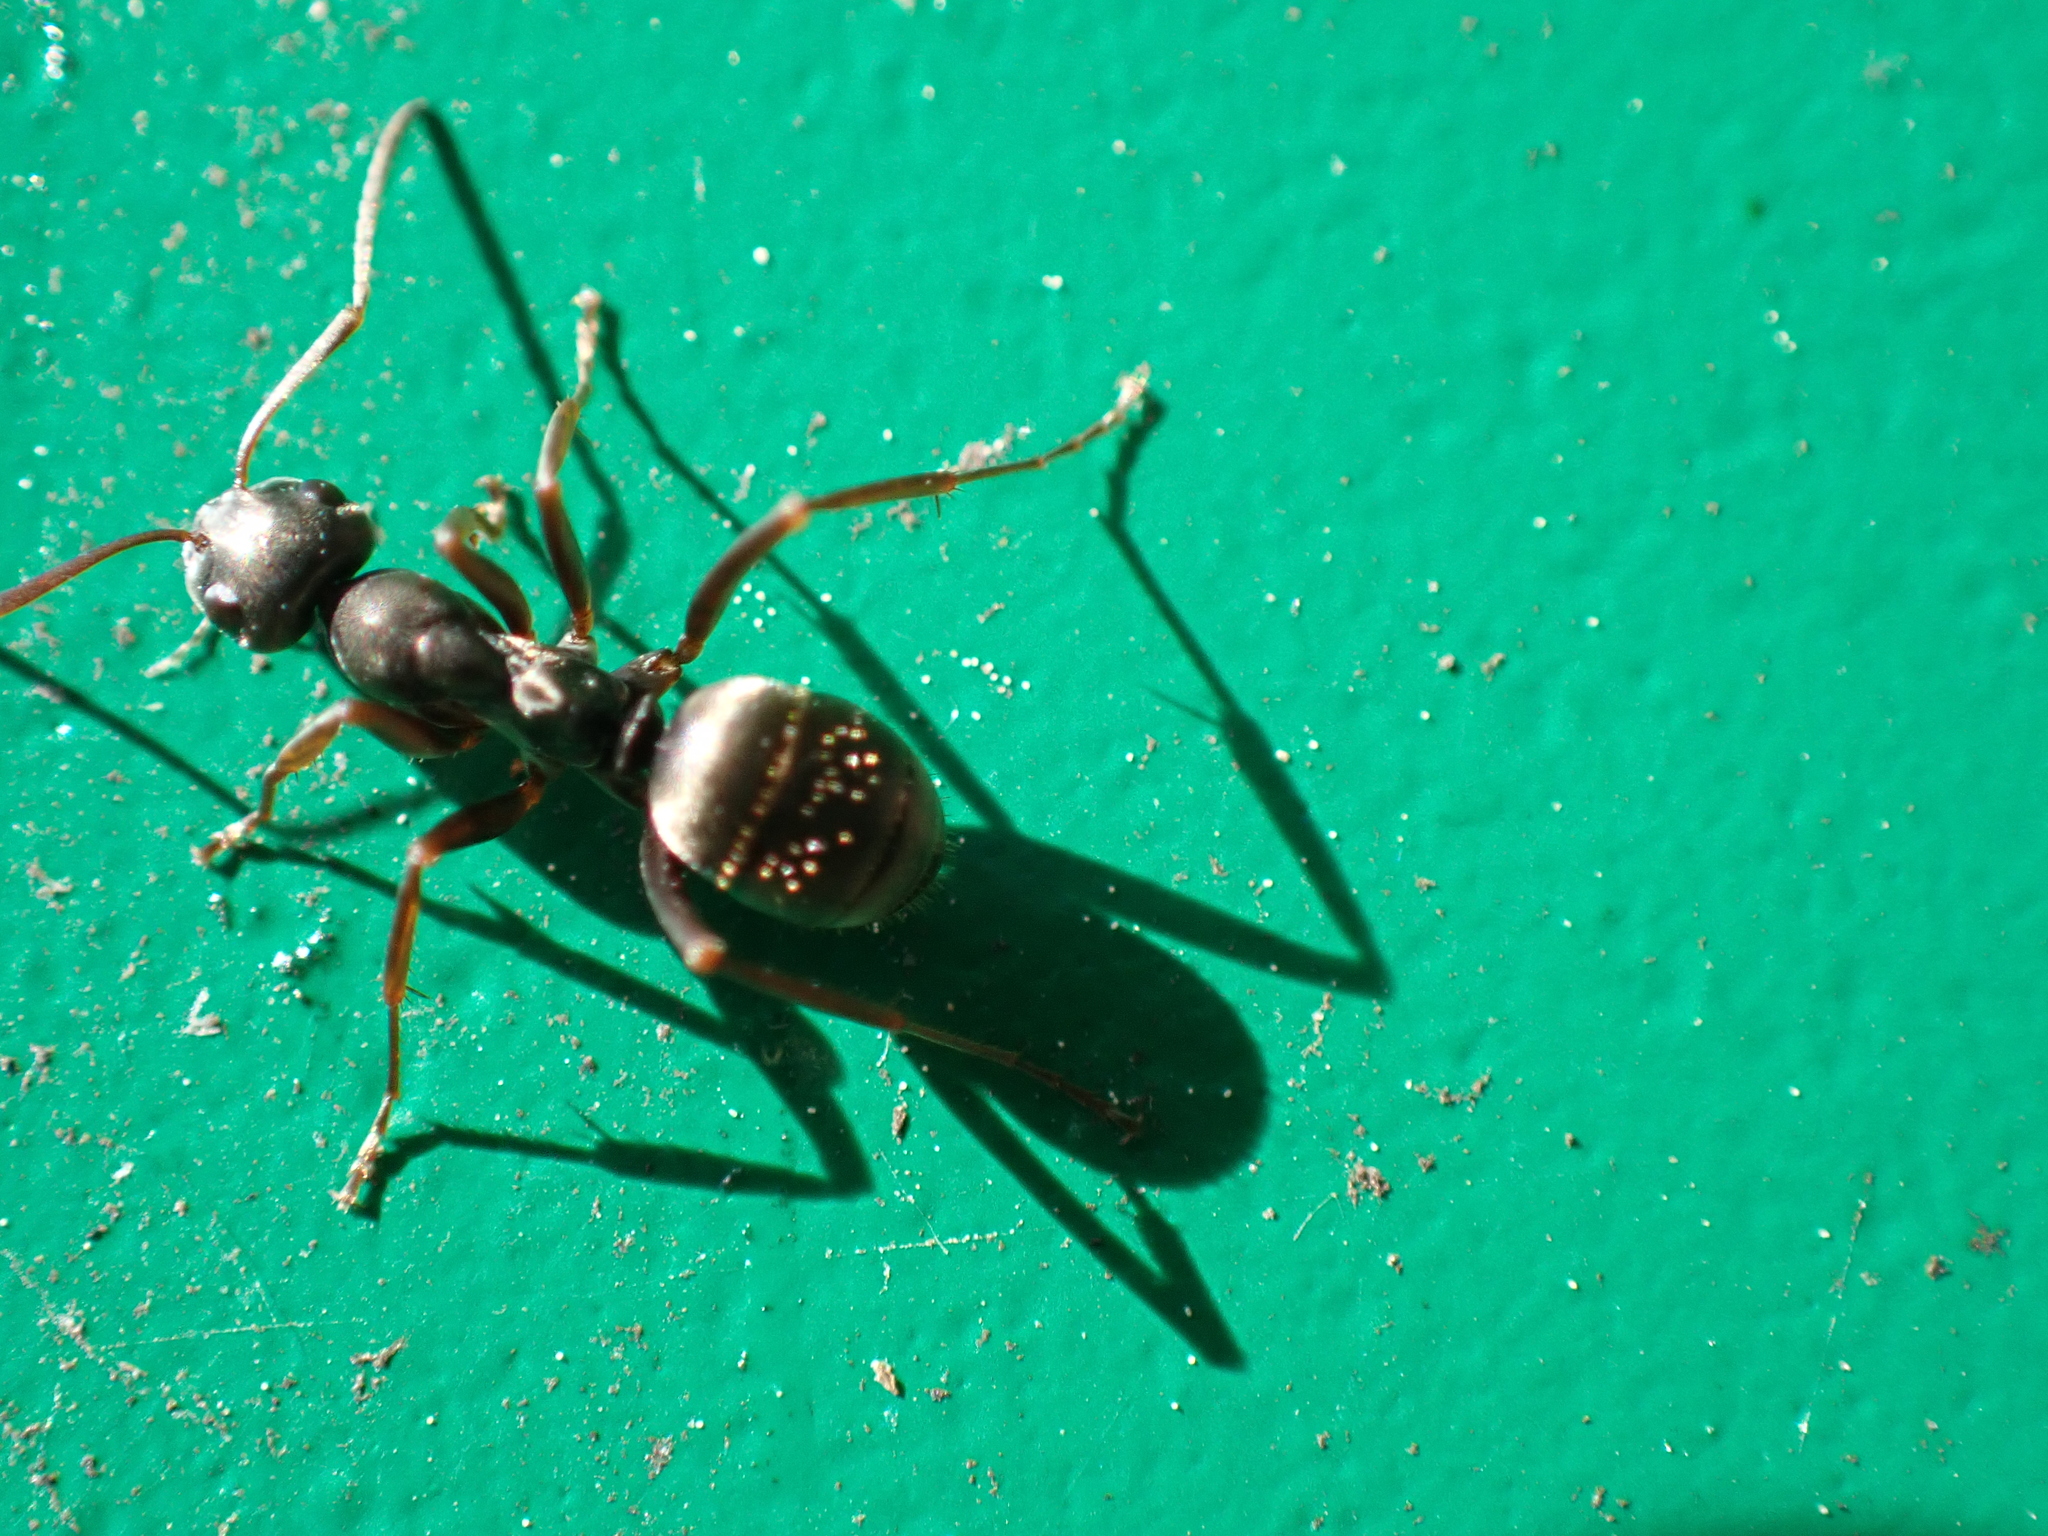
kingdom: Animalia
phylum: Arthropoda
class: Insecta
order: Hymenoptera
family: Formicidae
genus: Formica
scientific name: Formica
